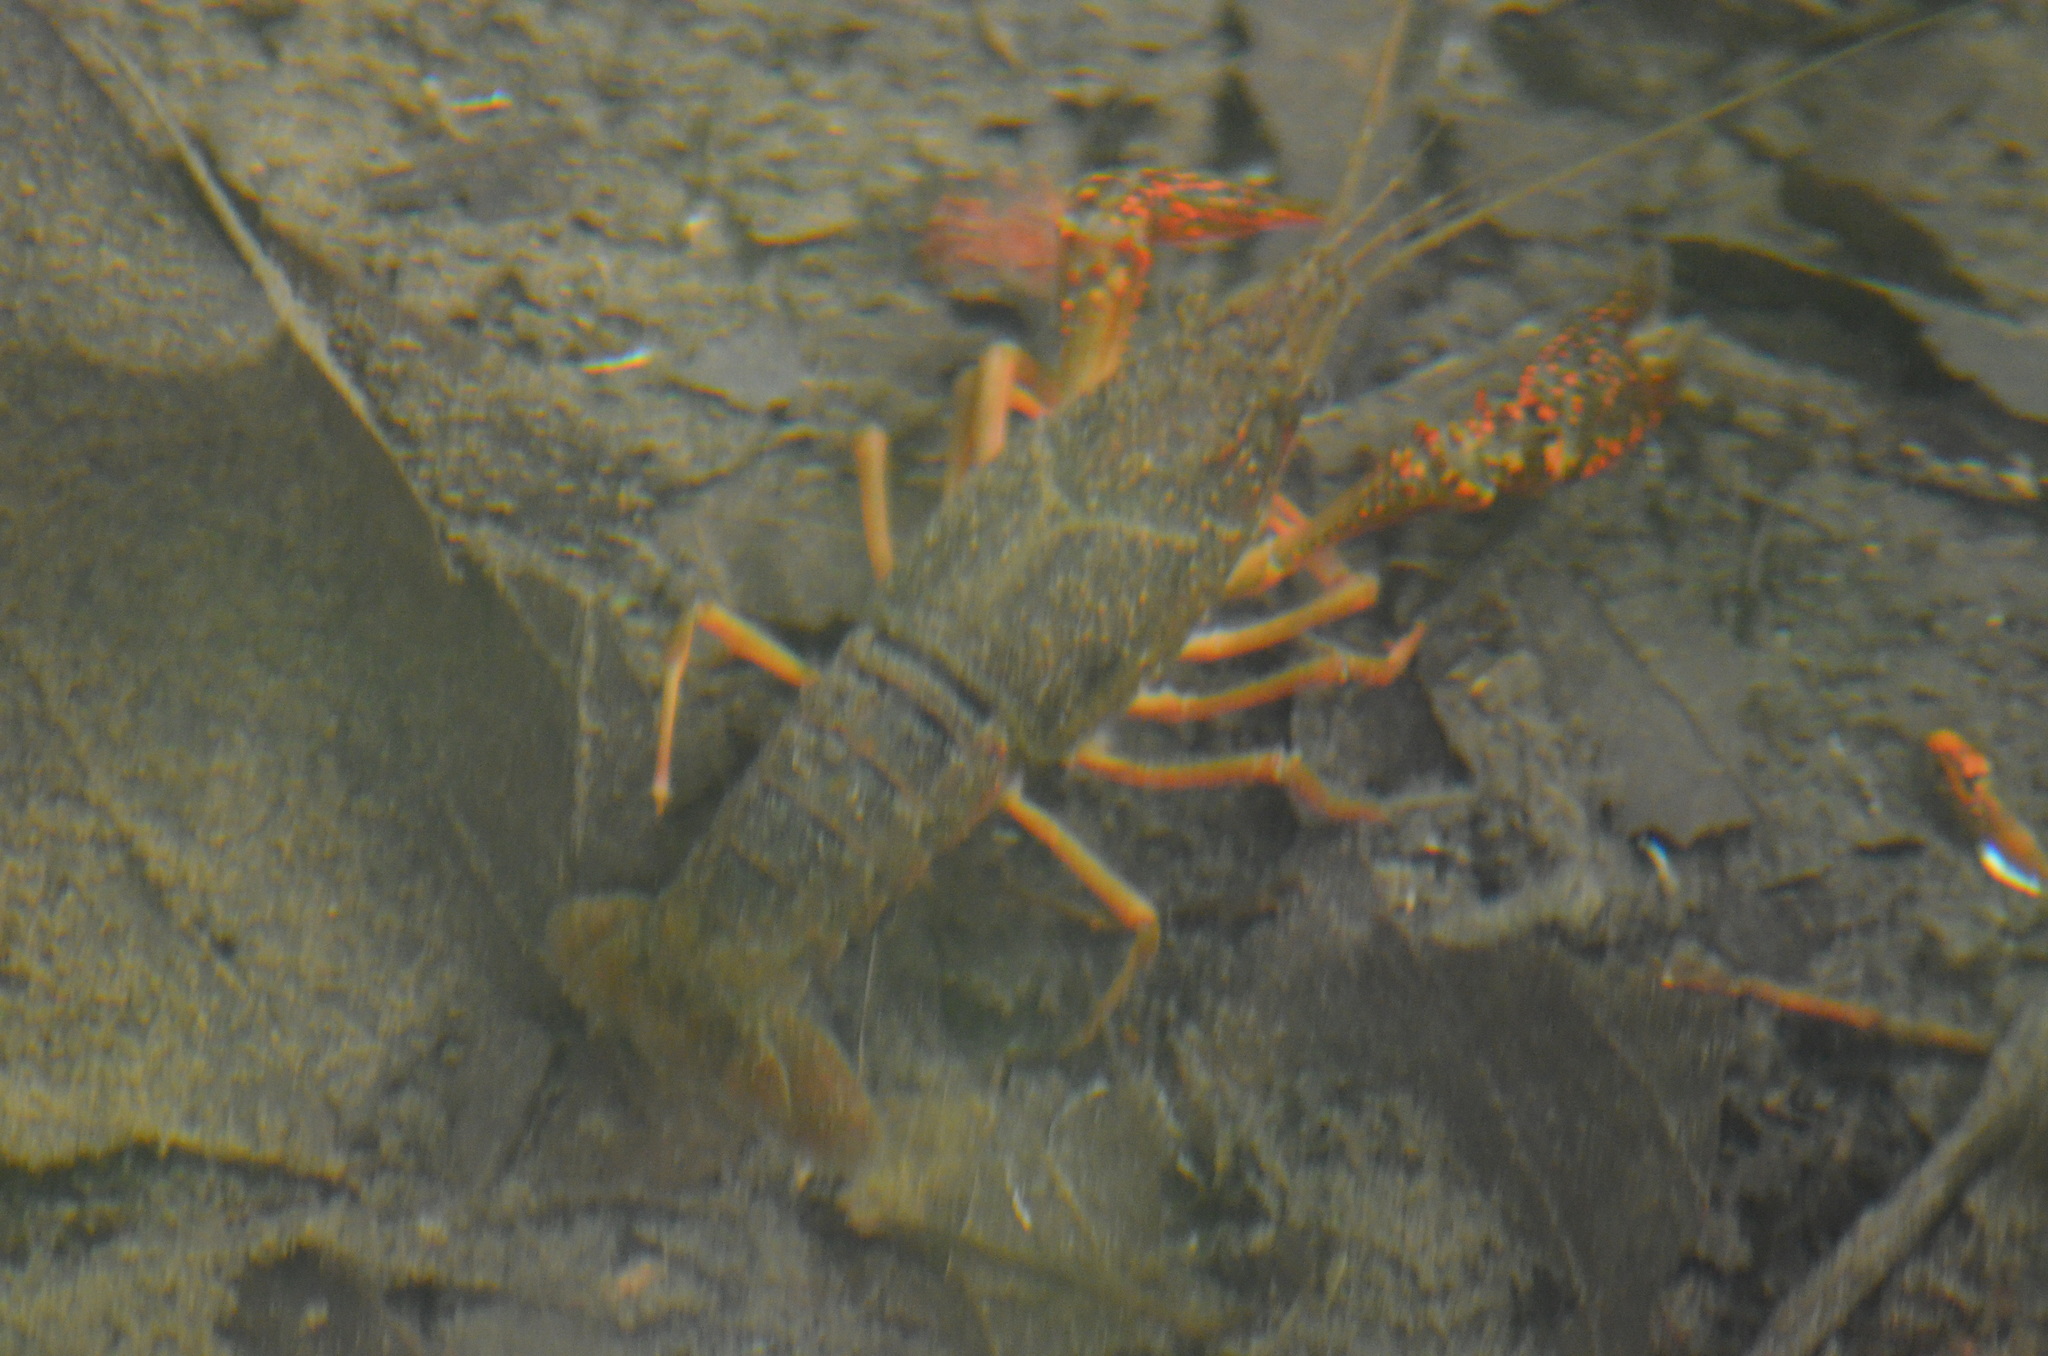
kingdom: Animalia
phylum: Arthropoda
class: Malacostraca
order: Decapoda
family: Cambaridae
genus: Procambarus
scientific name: Procambarus clarkii
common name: Red swamp crayfish
